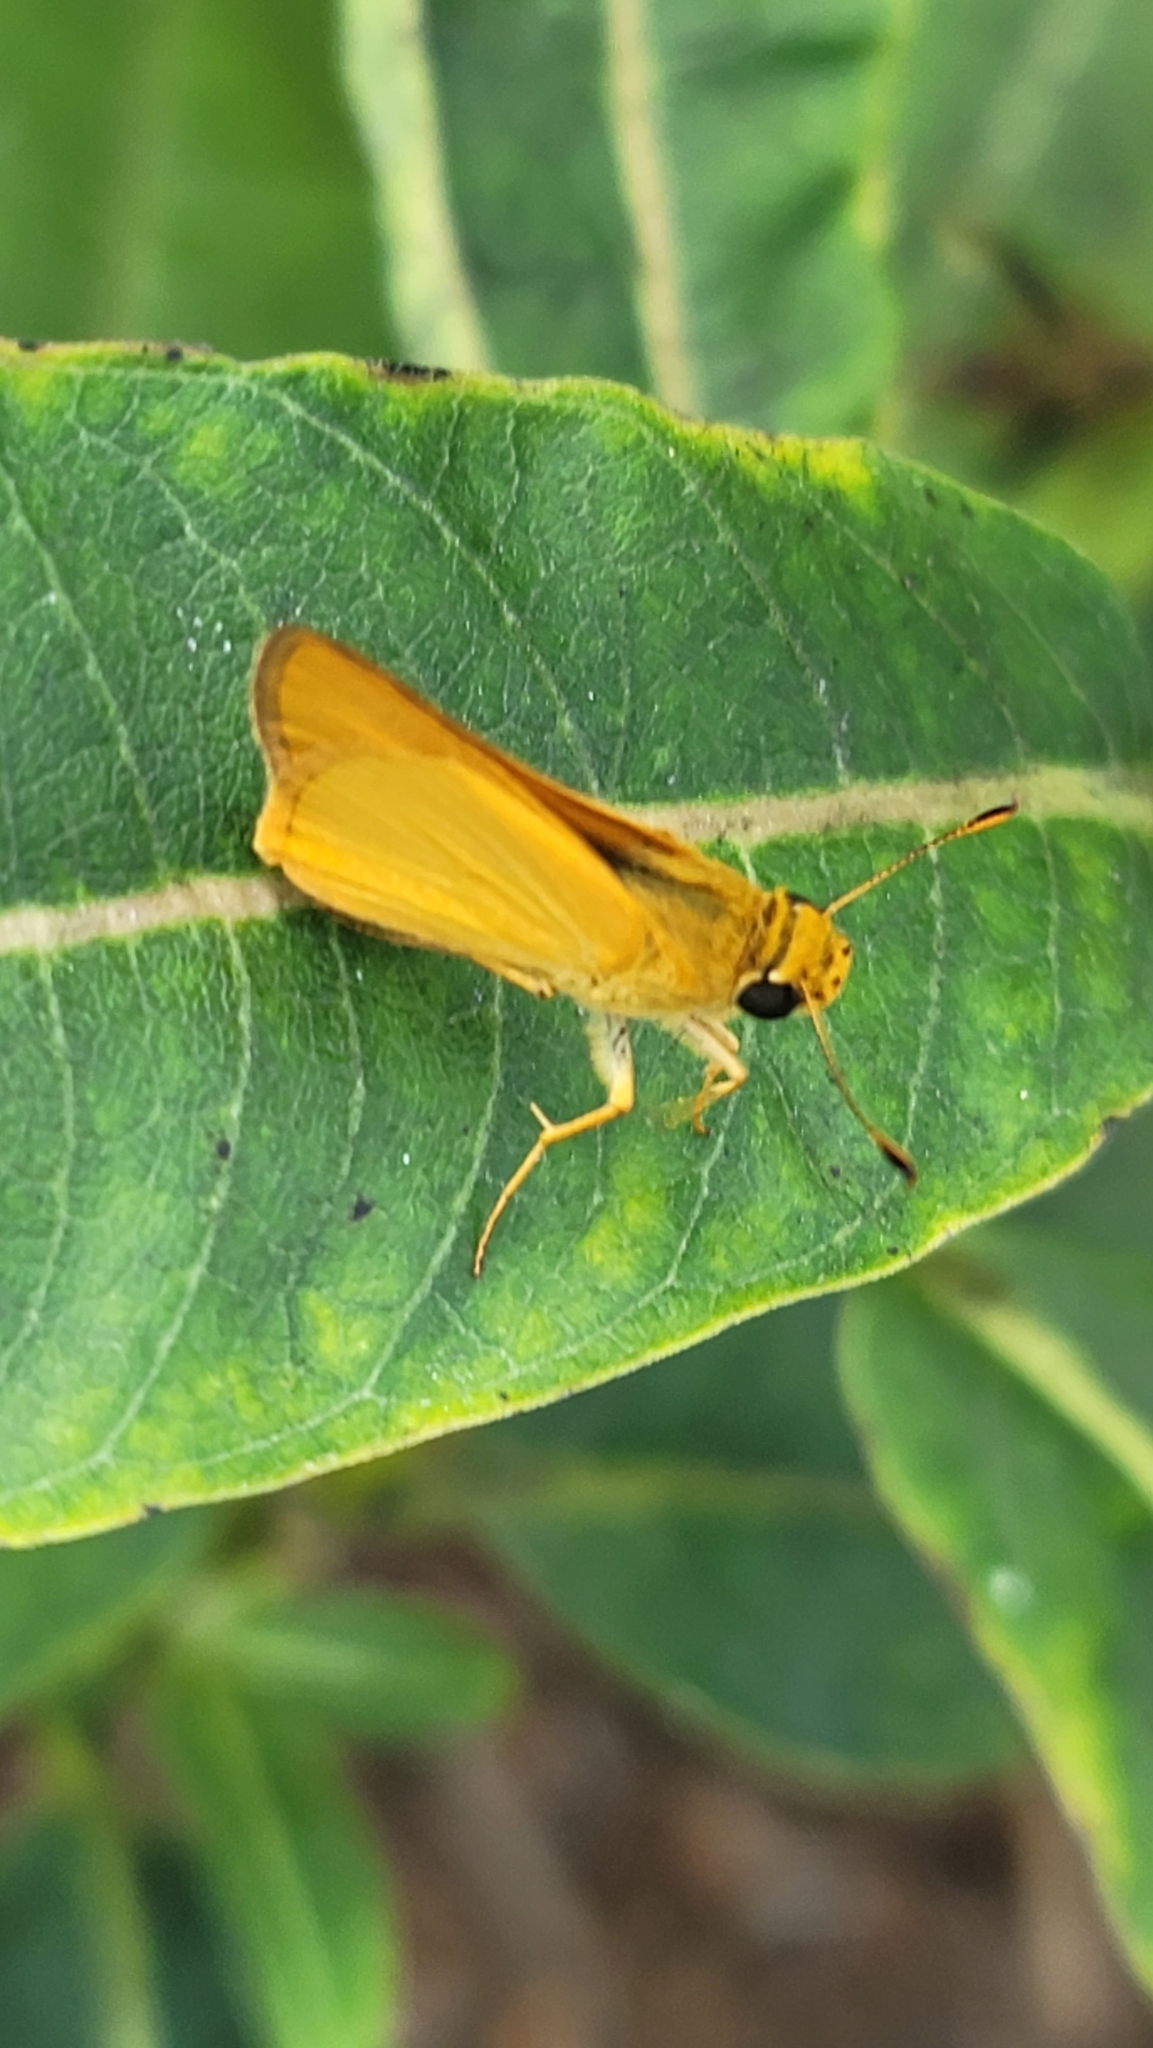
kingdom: Animalia
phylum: Arthropoda
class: Insecta
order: Lepidoptera
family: Hesperiidae
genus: Atrytone
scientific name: Atrytone delaware
